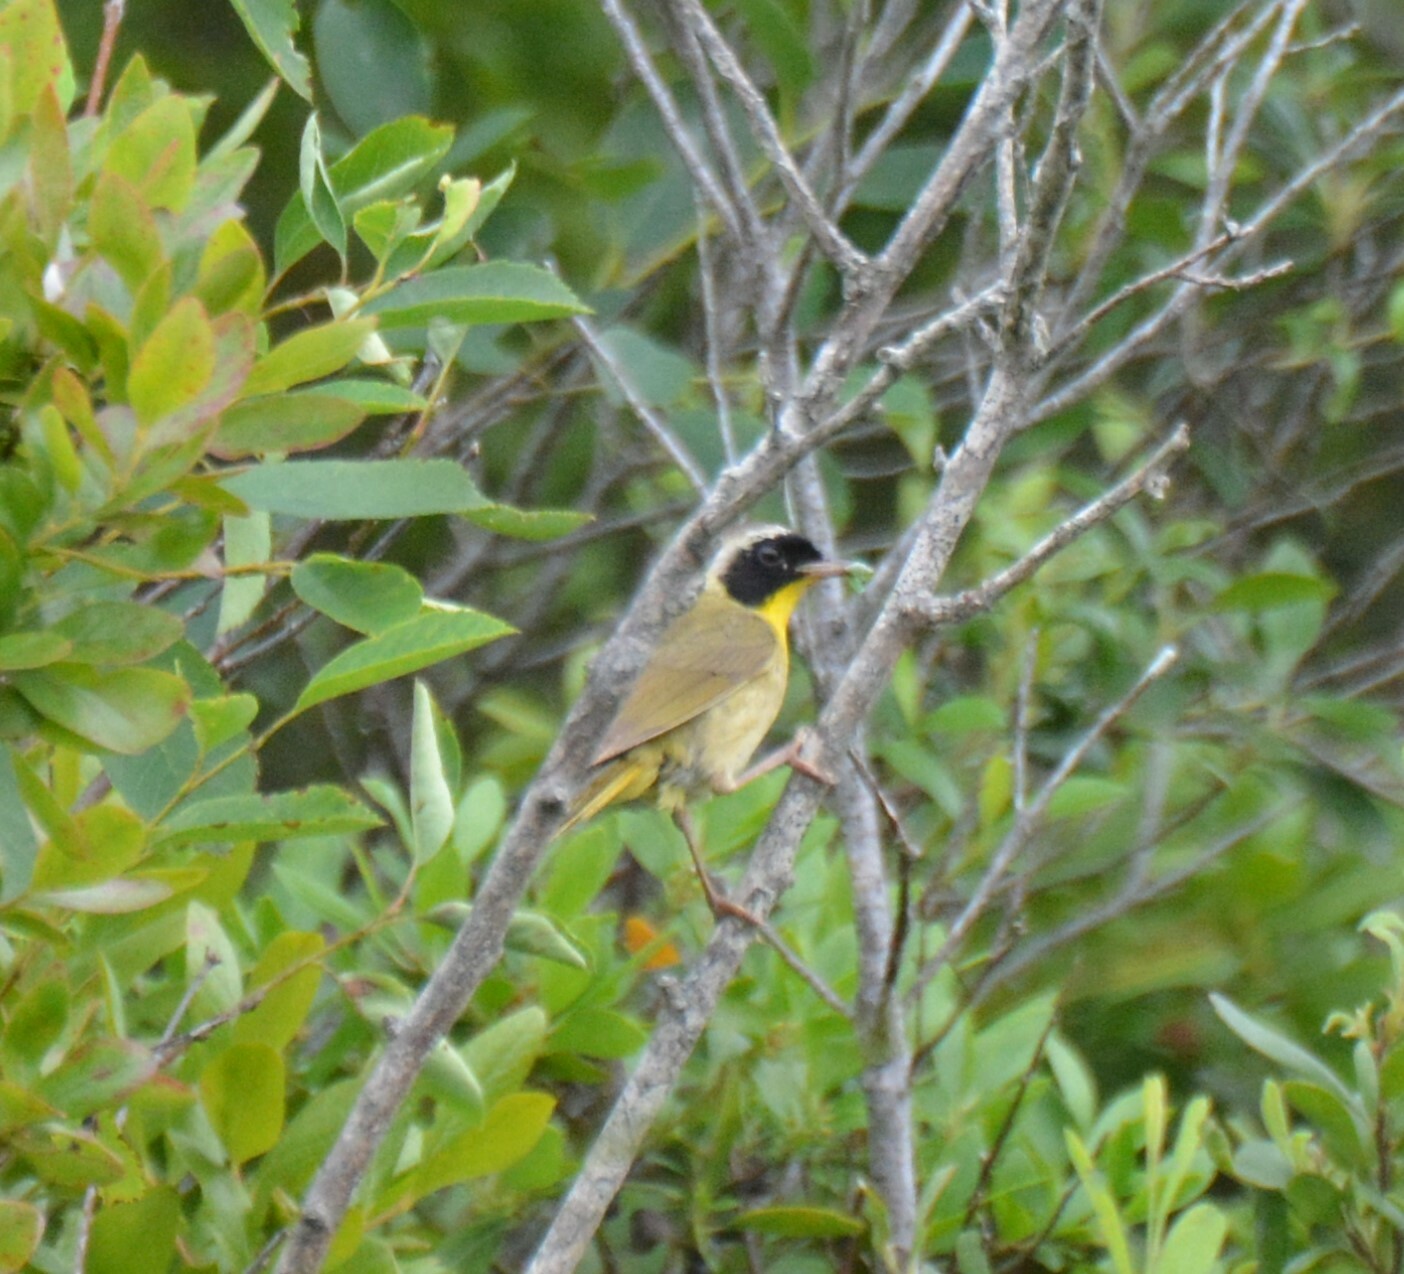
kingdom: Animalia
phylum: Chordata
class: Aves
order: Passeriformes
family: Parulidae
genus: Geothlypis
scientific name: Geothlypis trichas
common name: Common yellowthroat
